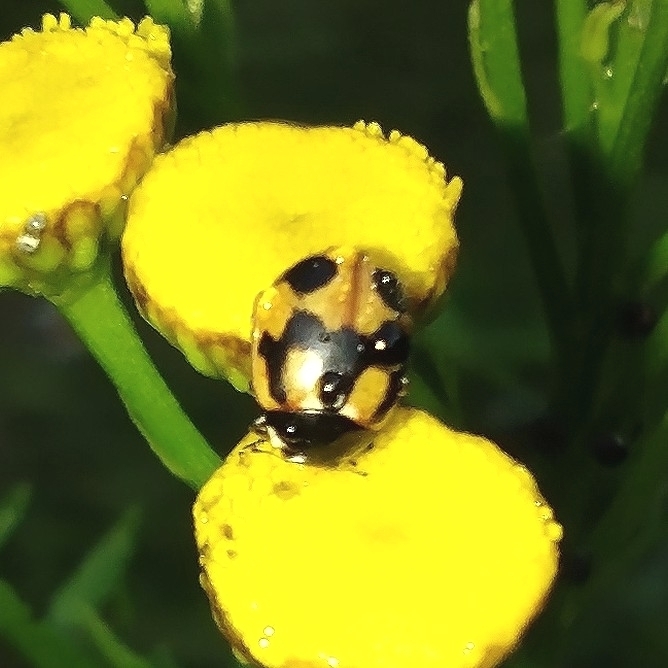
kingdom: Animalia
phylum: Arthropoda
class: Insecta
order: Coleoptera
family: Coccinellidae
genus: Coccinella
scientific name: Coccinella hieroglyphica
